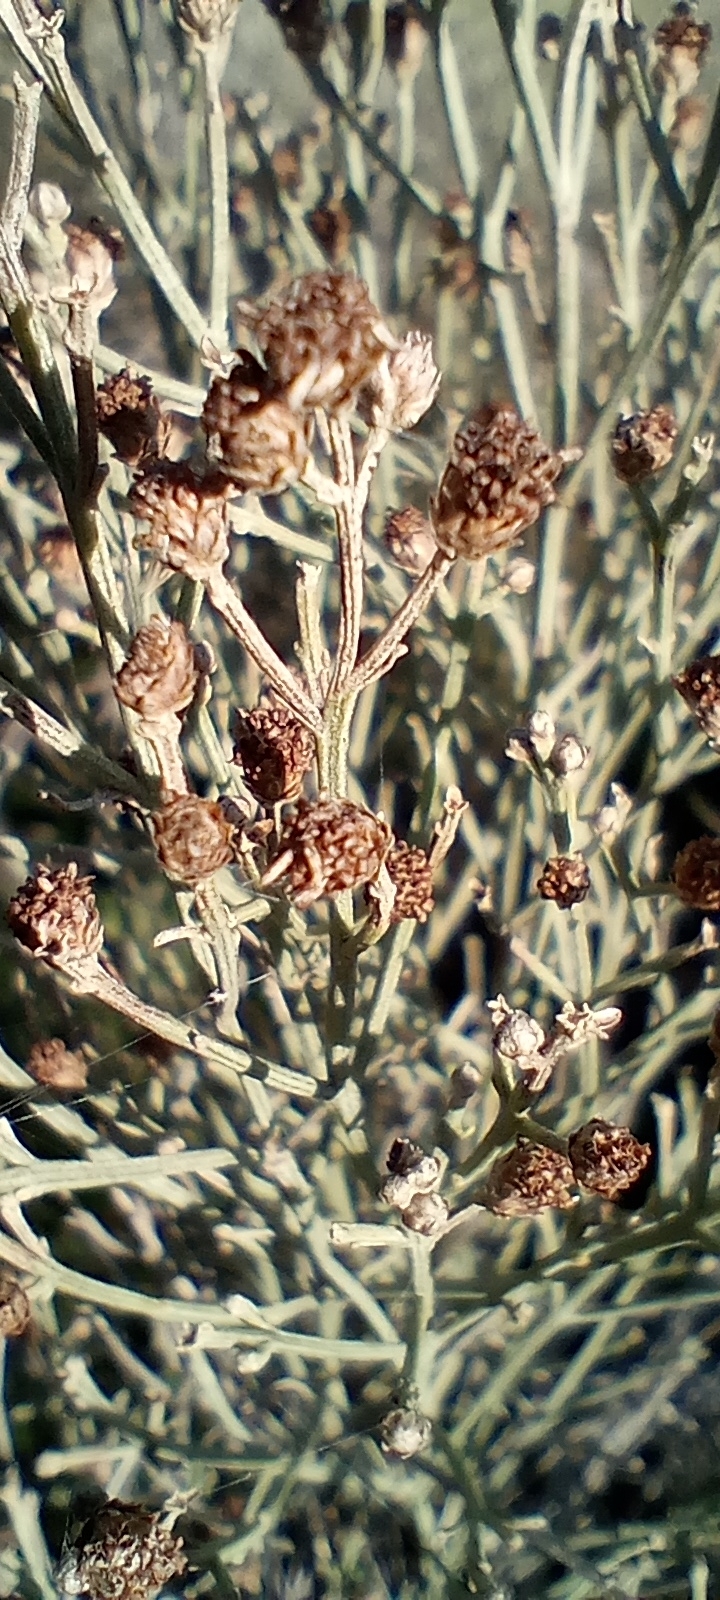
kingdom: Plantae
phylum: Tracheophyta
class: Magnoliopsida
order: Asterales
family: Asteraceae
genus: Baccharis
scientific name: Baccharis notosergila
